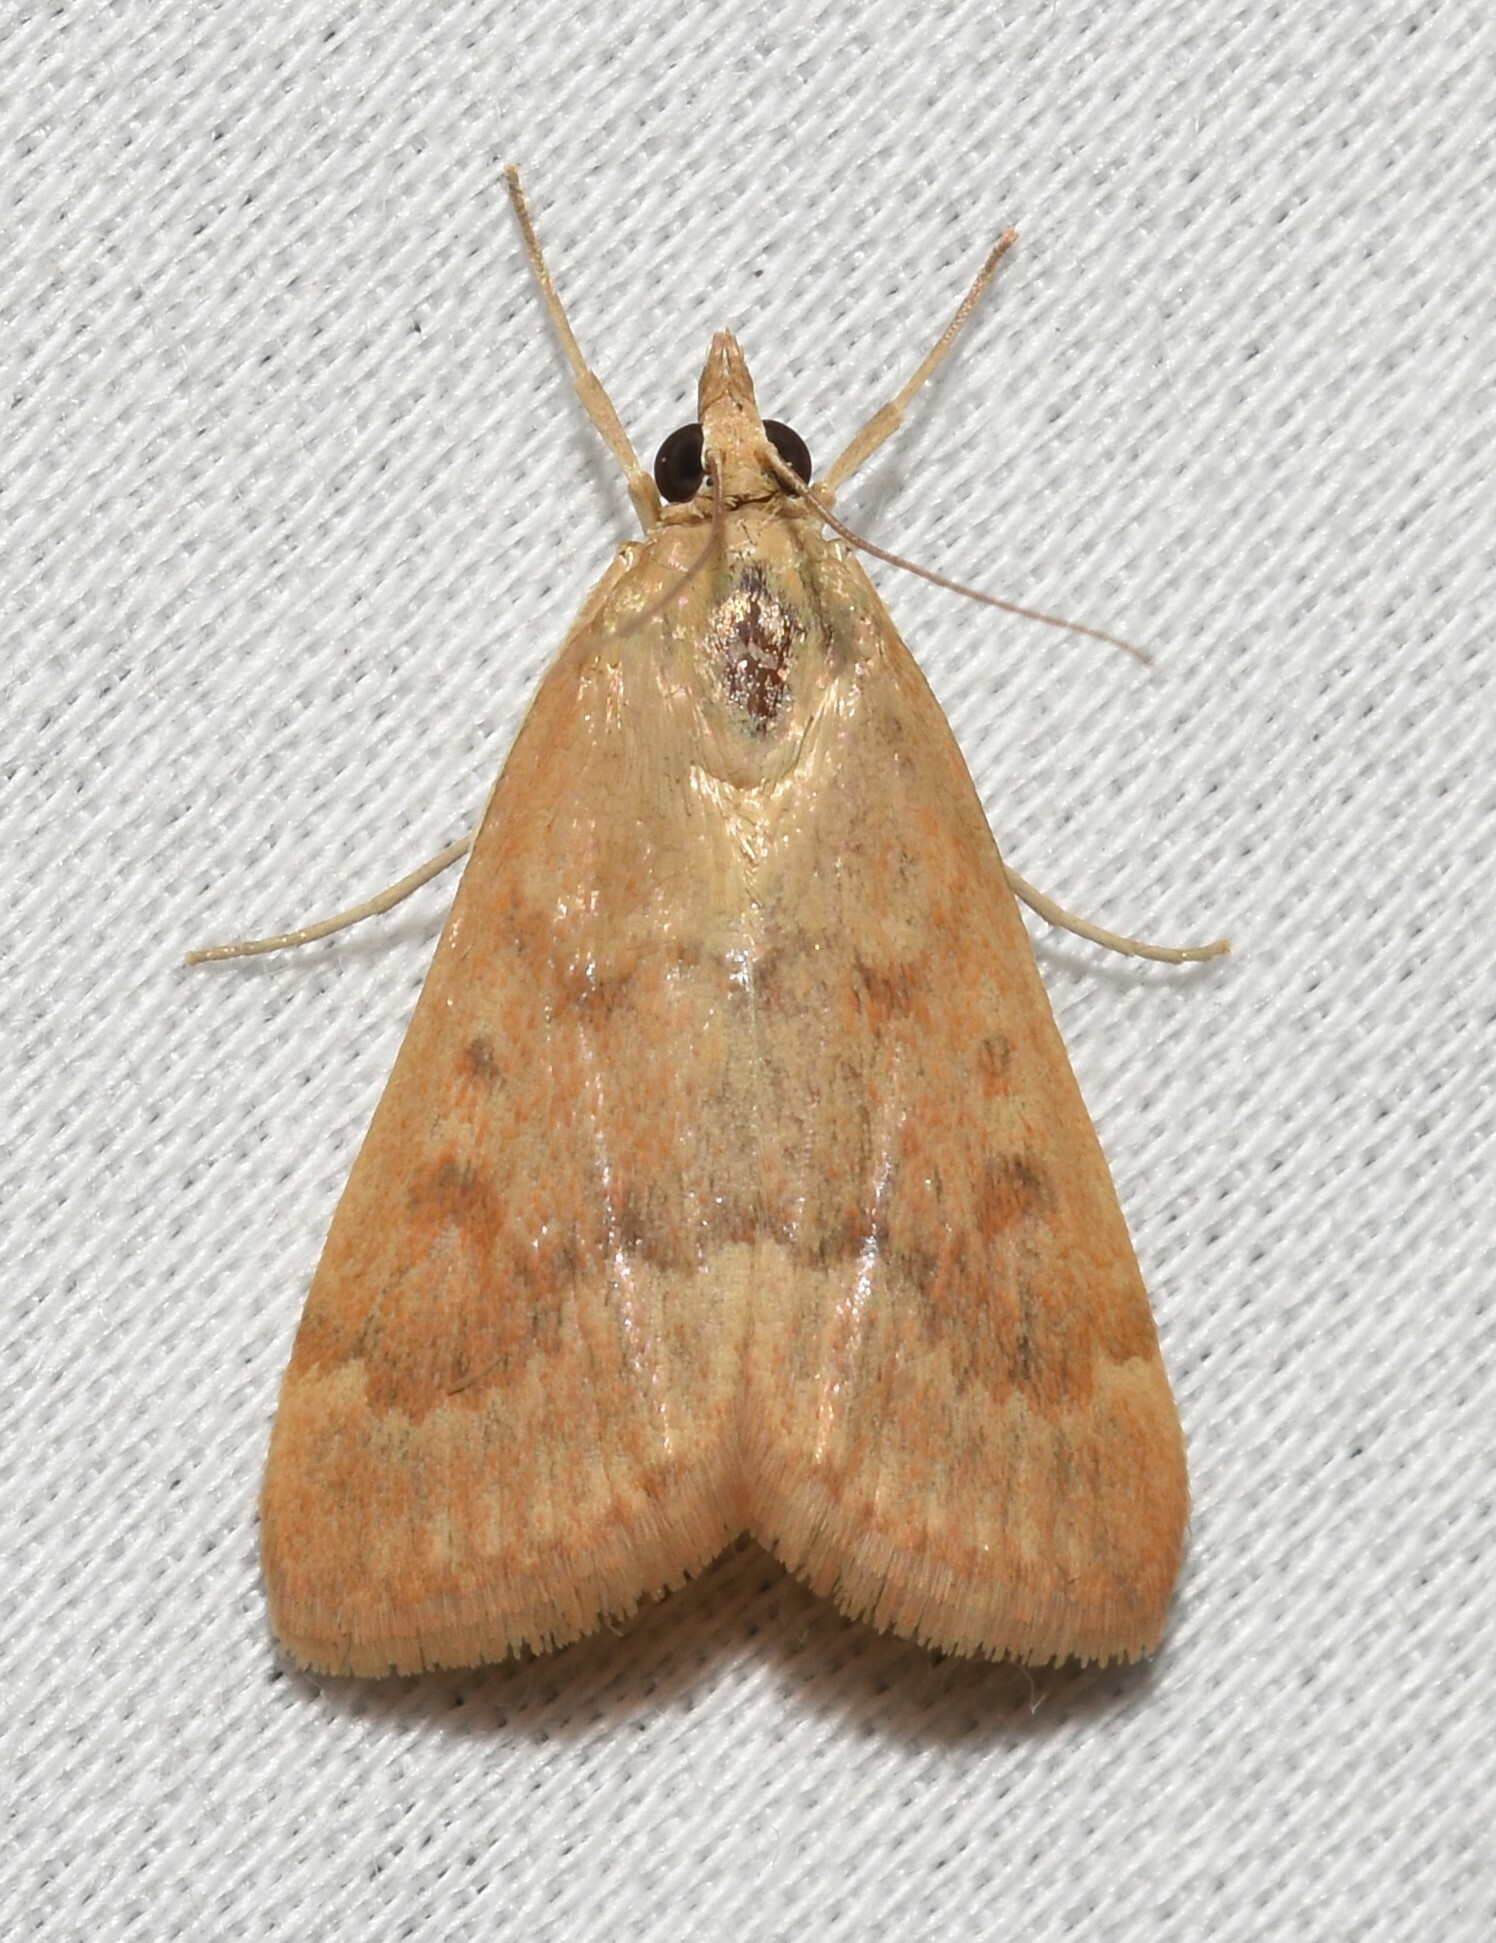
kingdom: Animalia
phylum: Arthropoda
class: Insecta
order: Lepidoptera
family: Crambidae
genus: Achyra
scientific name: Achyra rantalis
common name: Garden webworm
